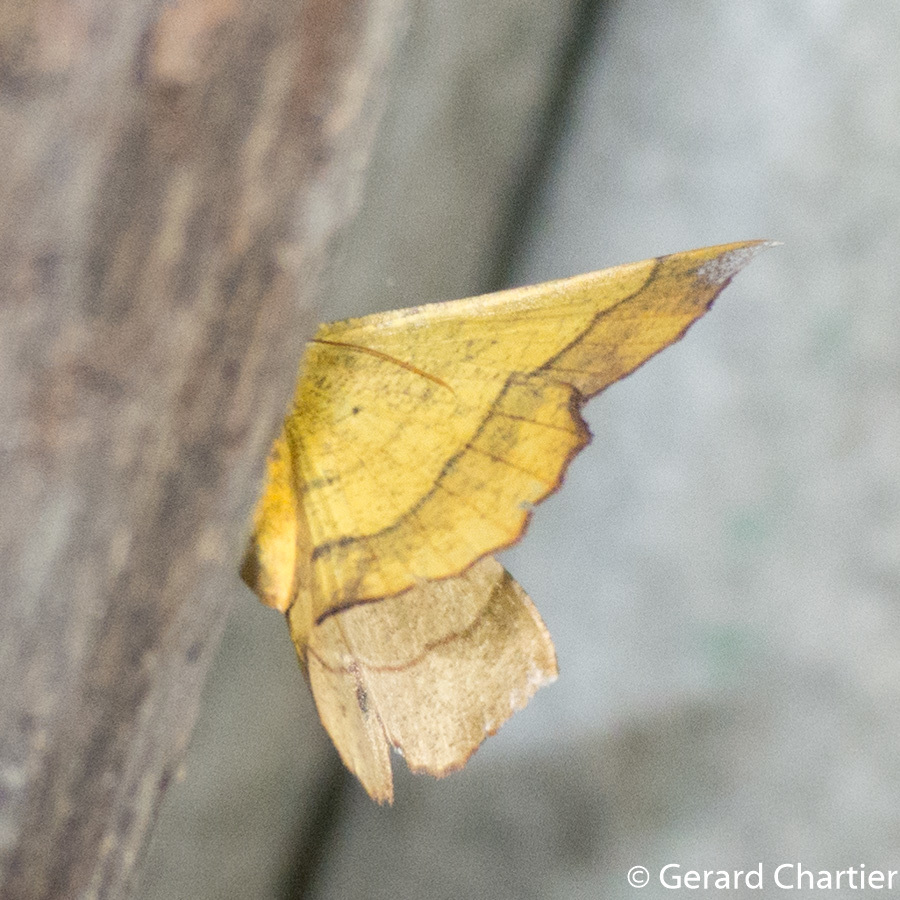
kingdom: Animalia
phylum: Arthropoda
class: Insecta
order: Lepidoptera
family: Geometridae
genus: Hyperythra
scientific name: Hyperythra lutea
